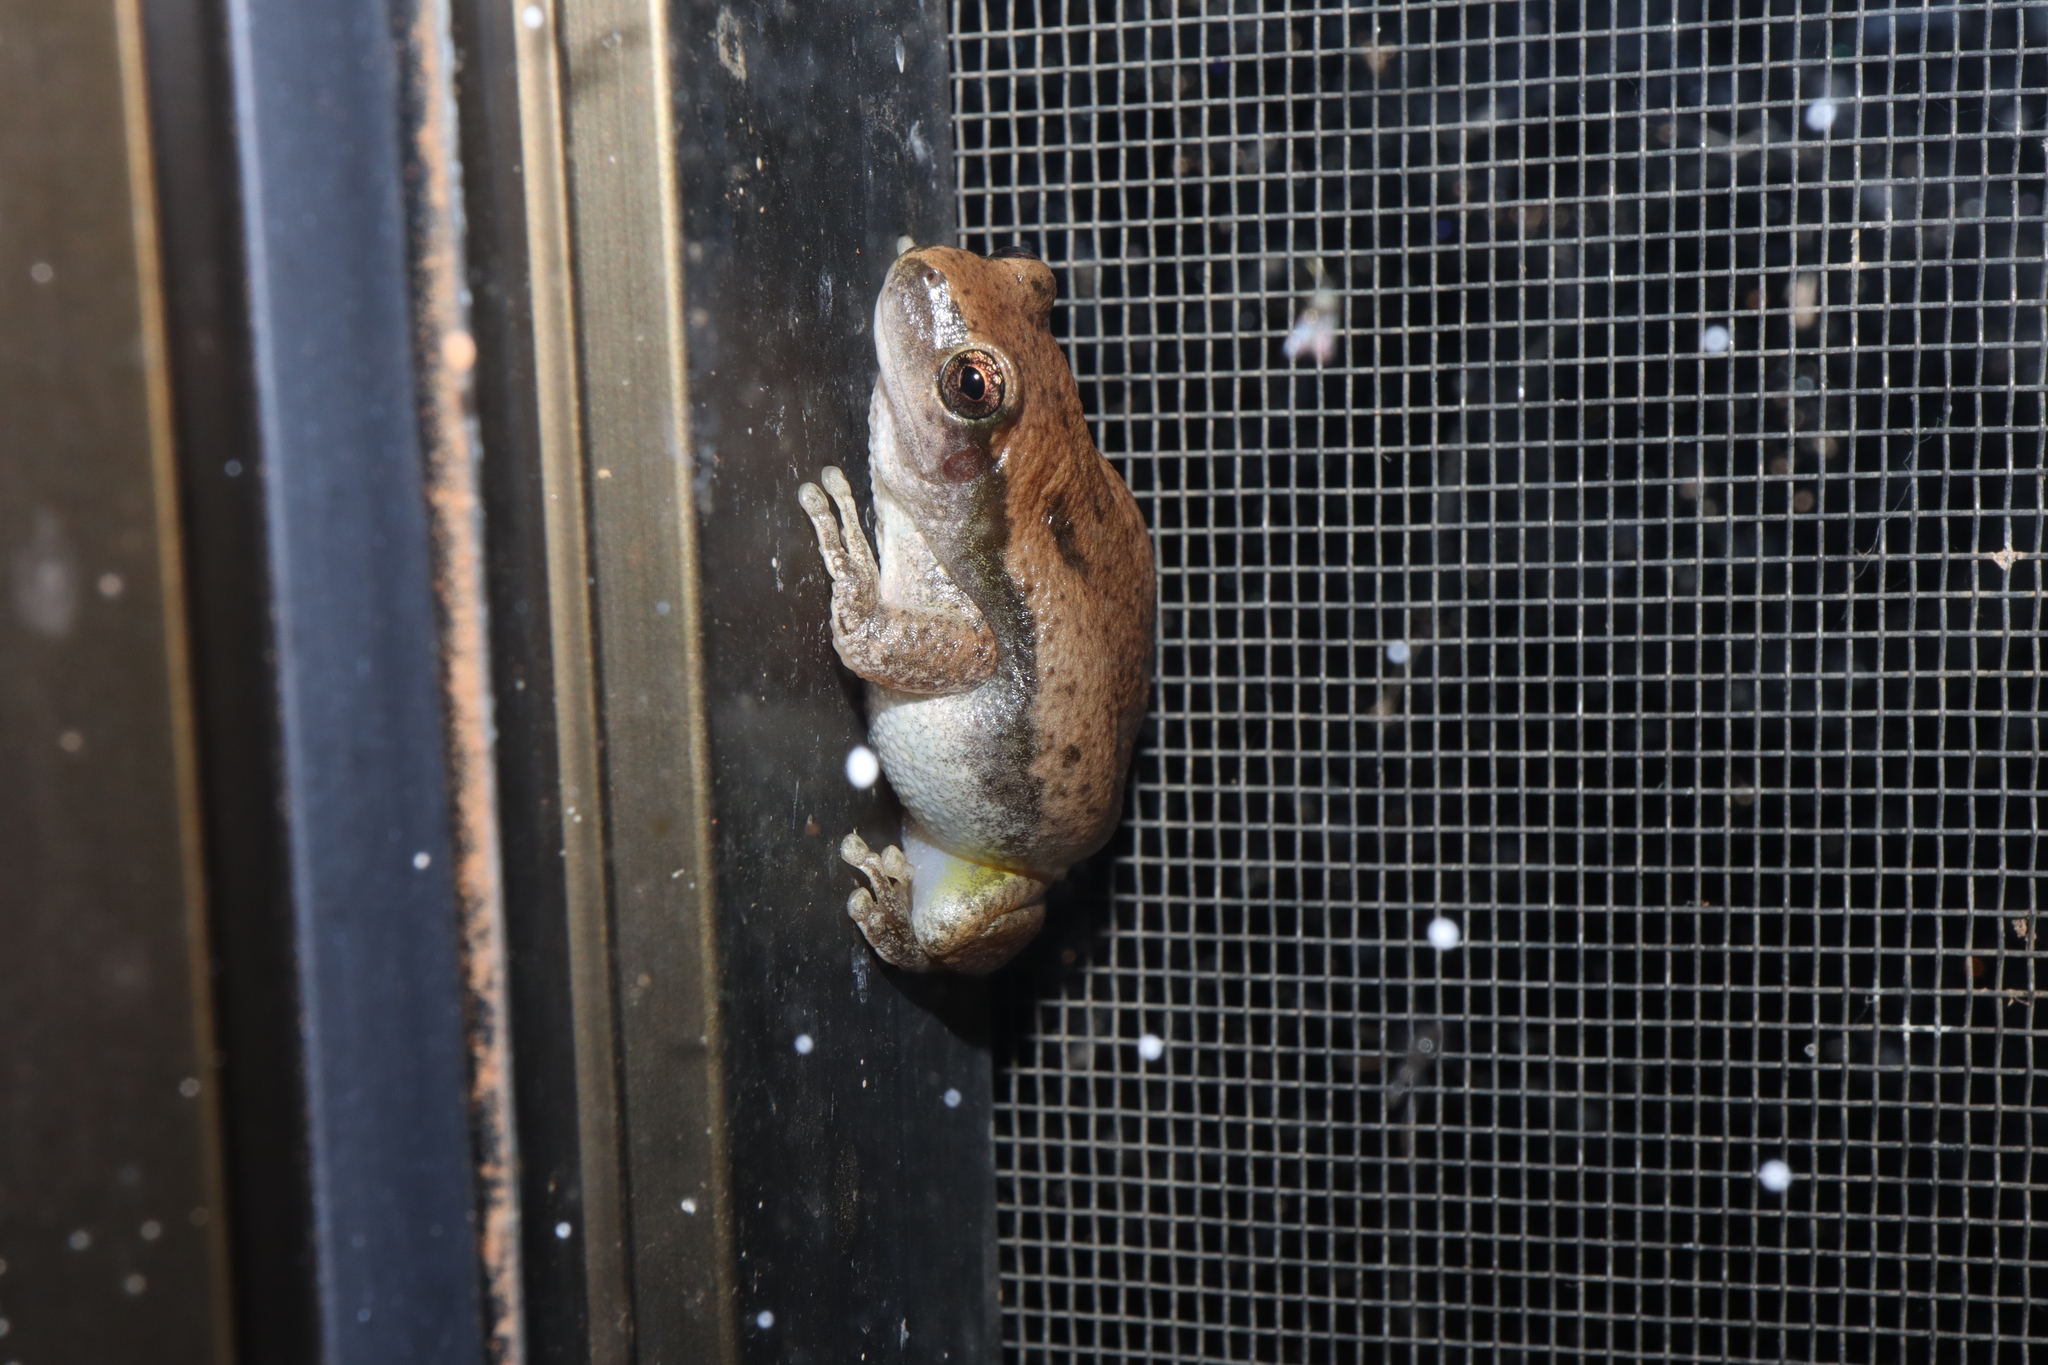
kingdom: Animalia
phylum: Chordata
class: Amphibia
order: Anura
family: Pelodryadidae
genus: Litoria
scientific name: Litoria rubella
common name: Desert tree frog
